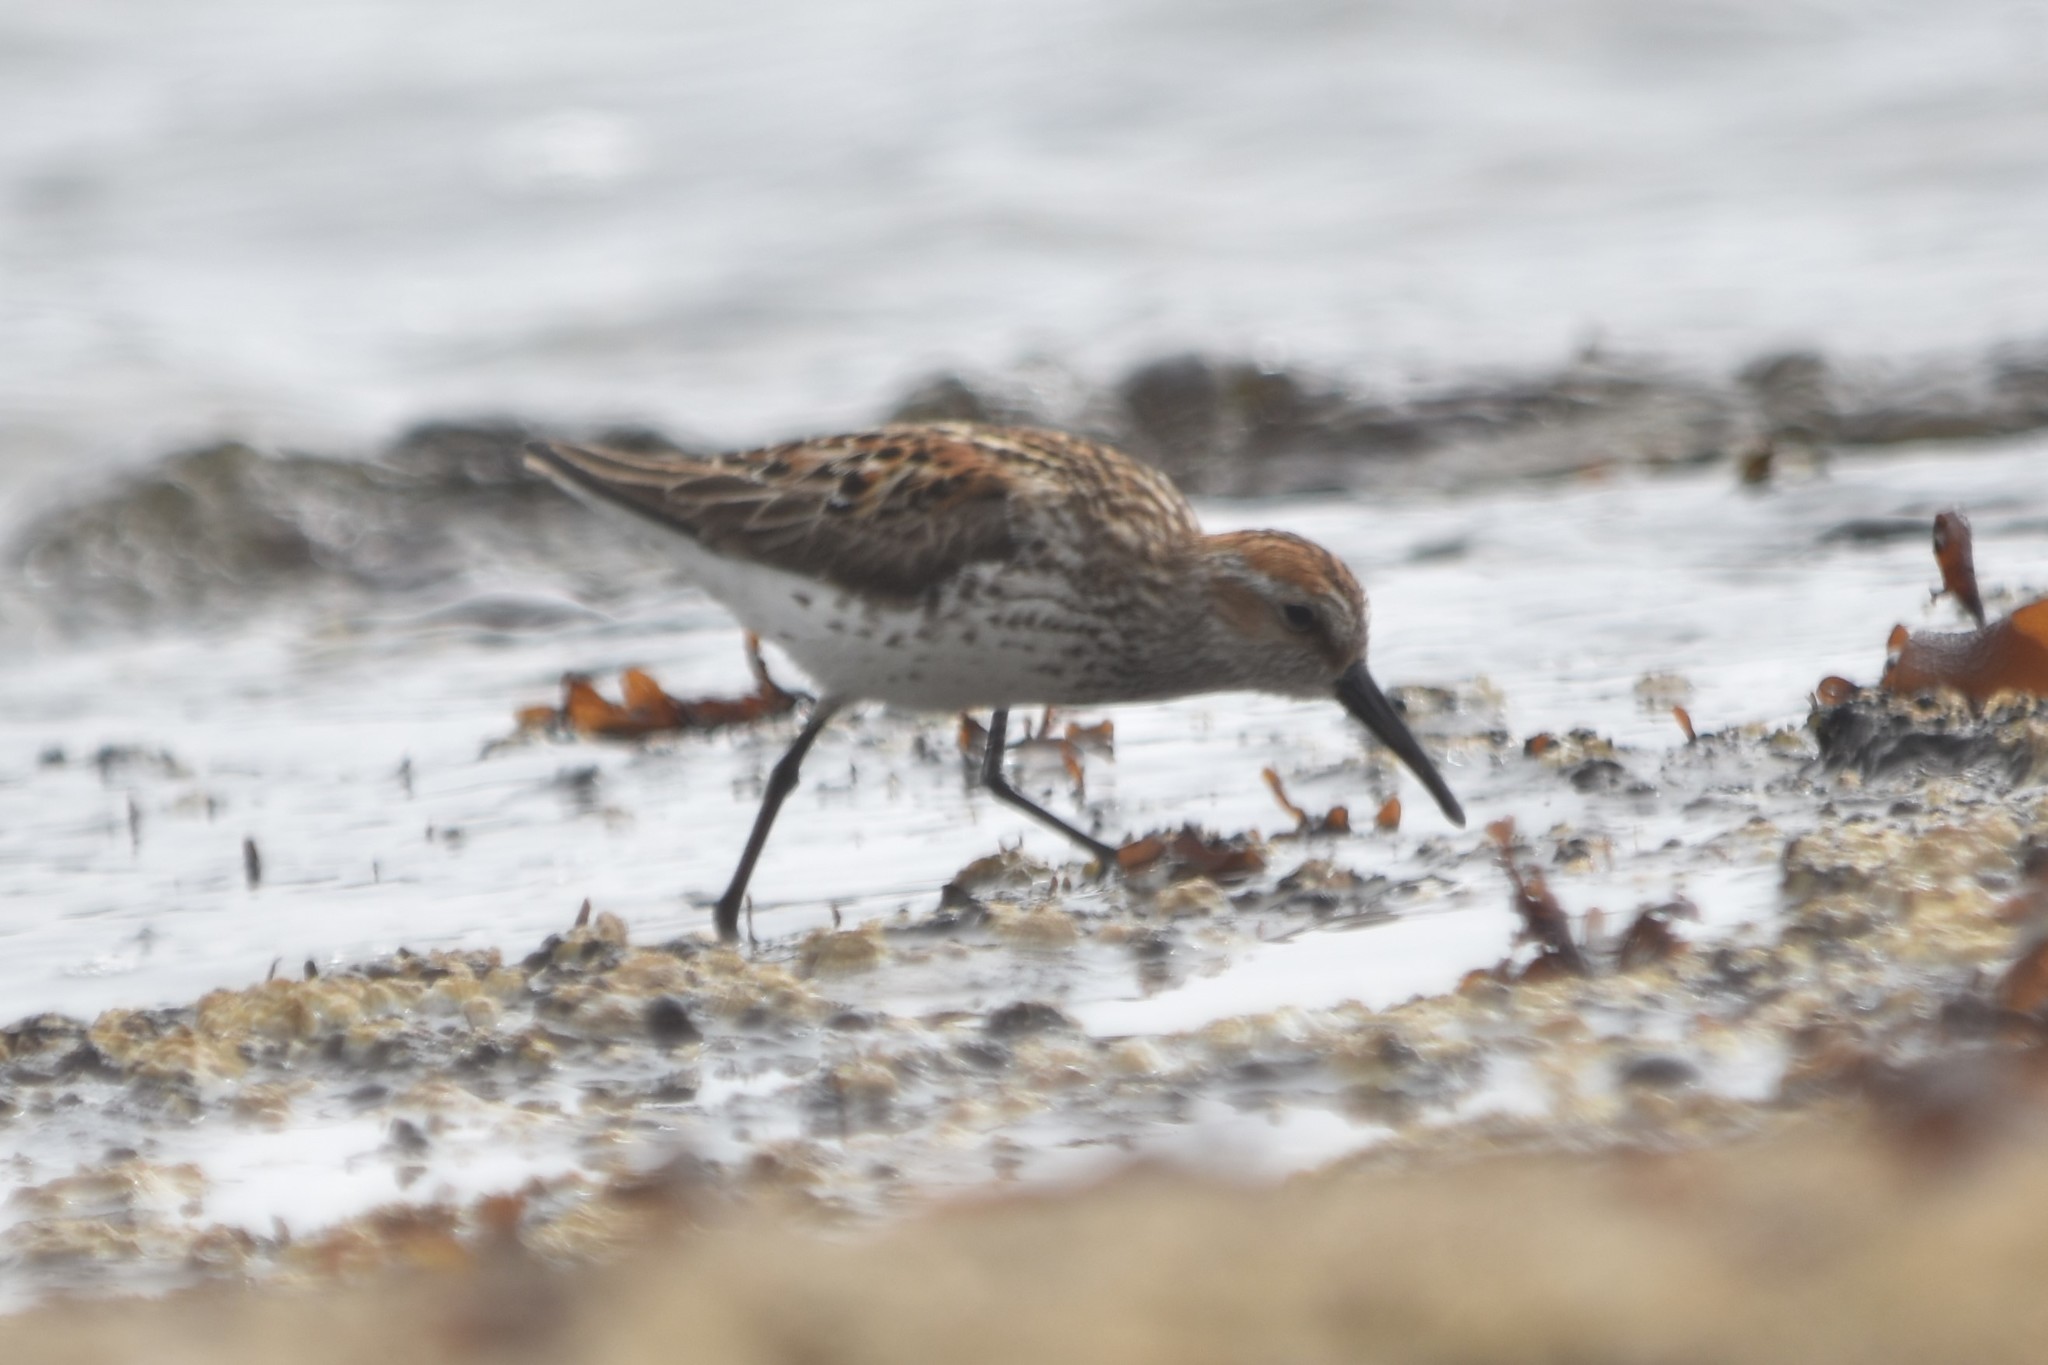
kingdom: Animalia
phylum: Chordata
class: Aves
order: Charadriiformes
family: Scolopacidae
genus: Calidris
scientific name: Calidris mauri
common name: Western sandpiper
